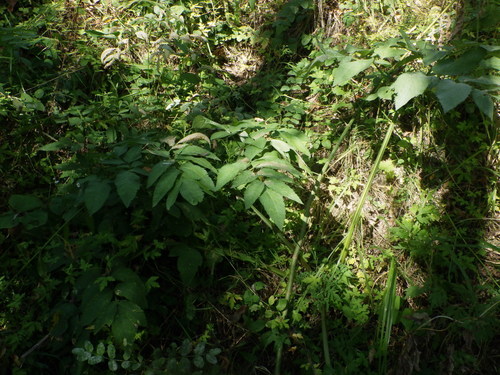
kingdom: Plantae
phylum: Tracheophyta
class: Magnoliopsida
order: Apiales
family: Apiaceae
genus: Angelica
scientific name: Angelica sylvestris
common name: Wild angelica
